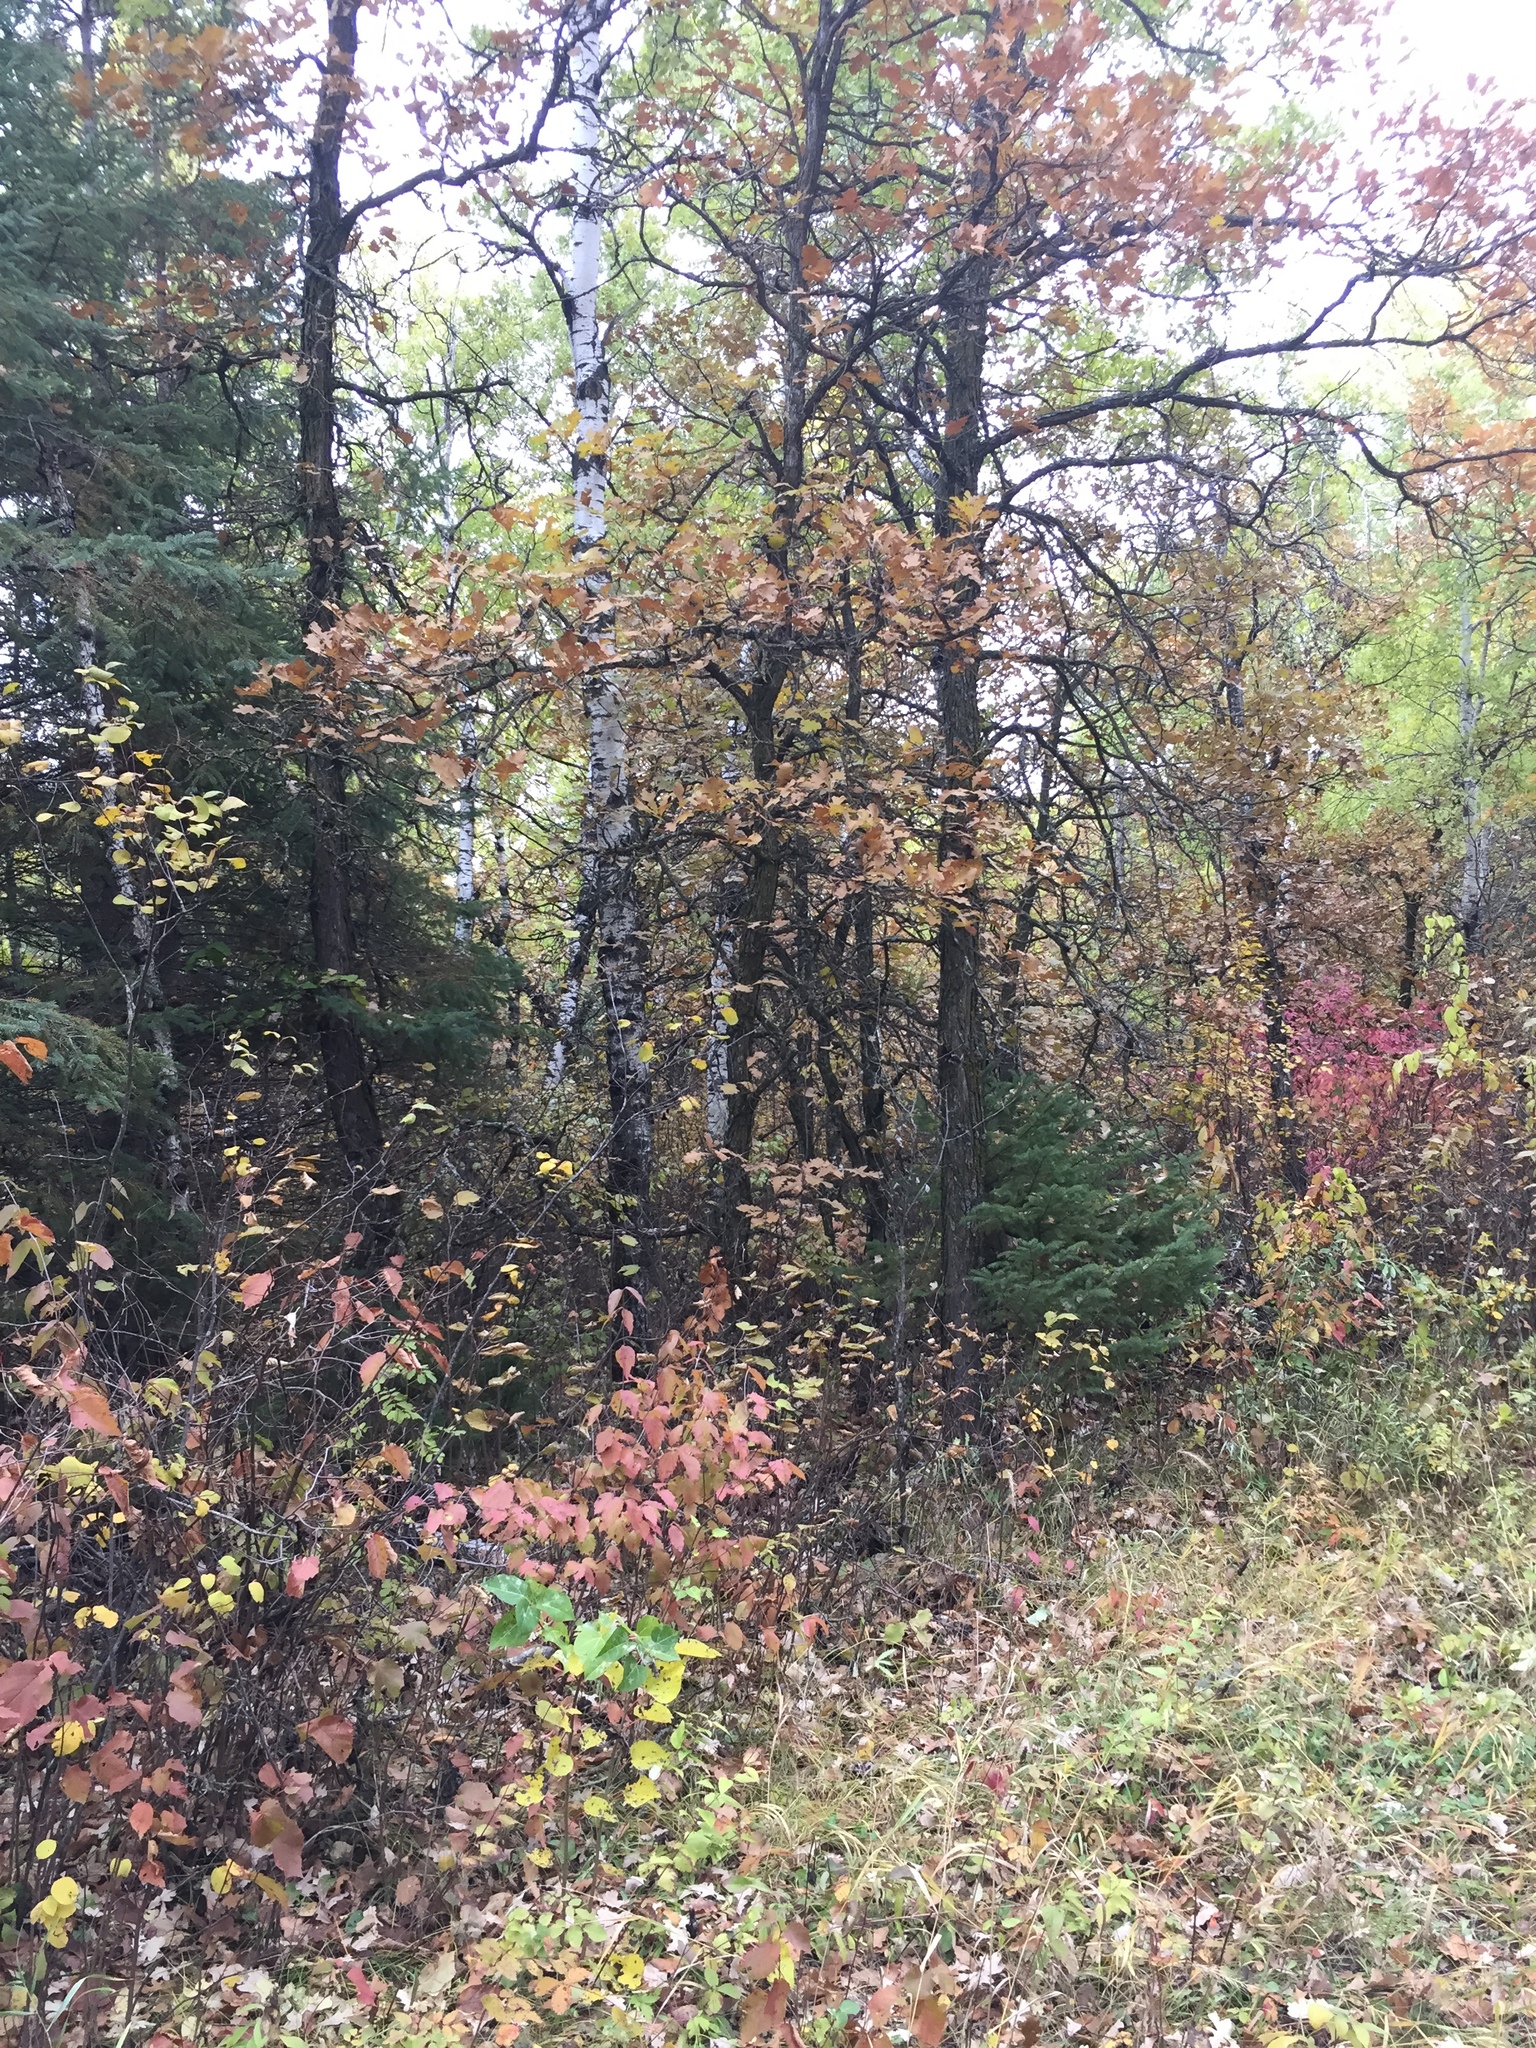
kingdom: Plantae
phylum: Tracheophyta
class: Magnoliopsida
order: Fagales
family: Fagaceae
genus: Quercus
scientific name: Quercus macrocarpa
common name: Bur oak
